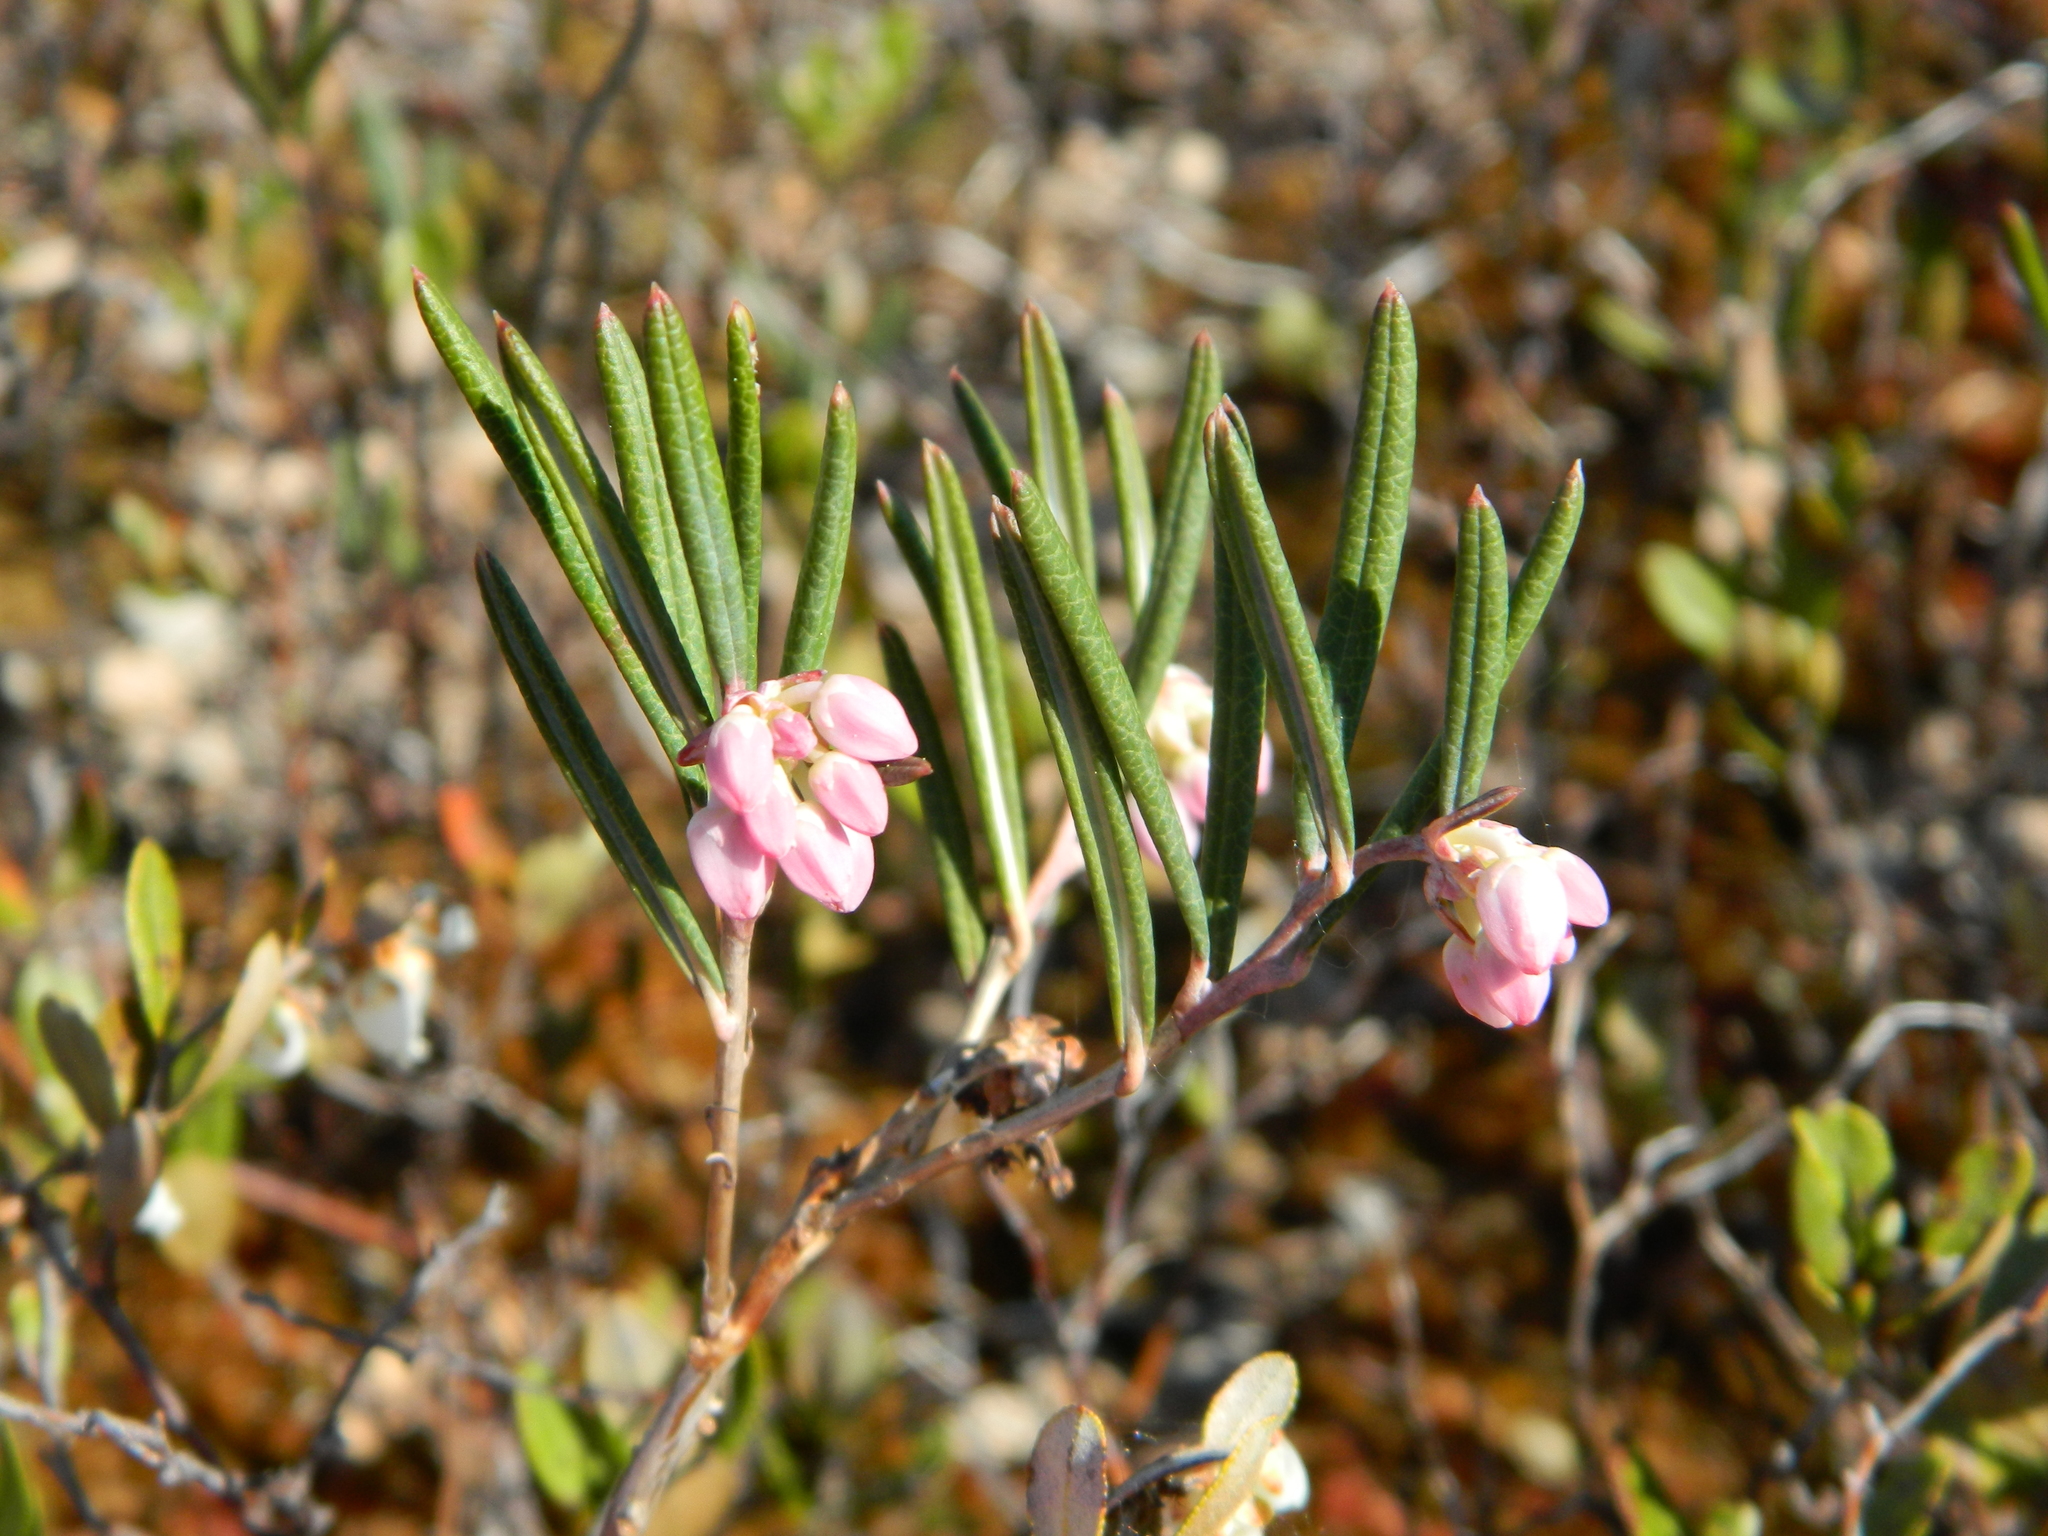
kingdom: Plantae
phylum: Tracheophyta
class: Magnoliopsida
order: Ericales
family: Ericaceae
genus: Andromeda
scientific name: Andromeda polifolia
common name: Bog-rosemary
